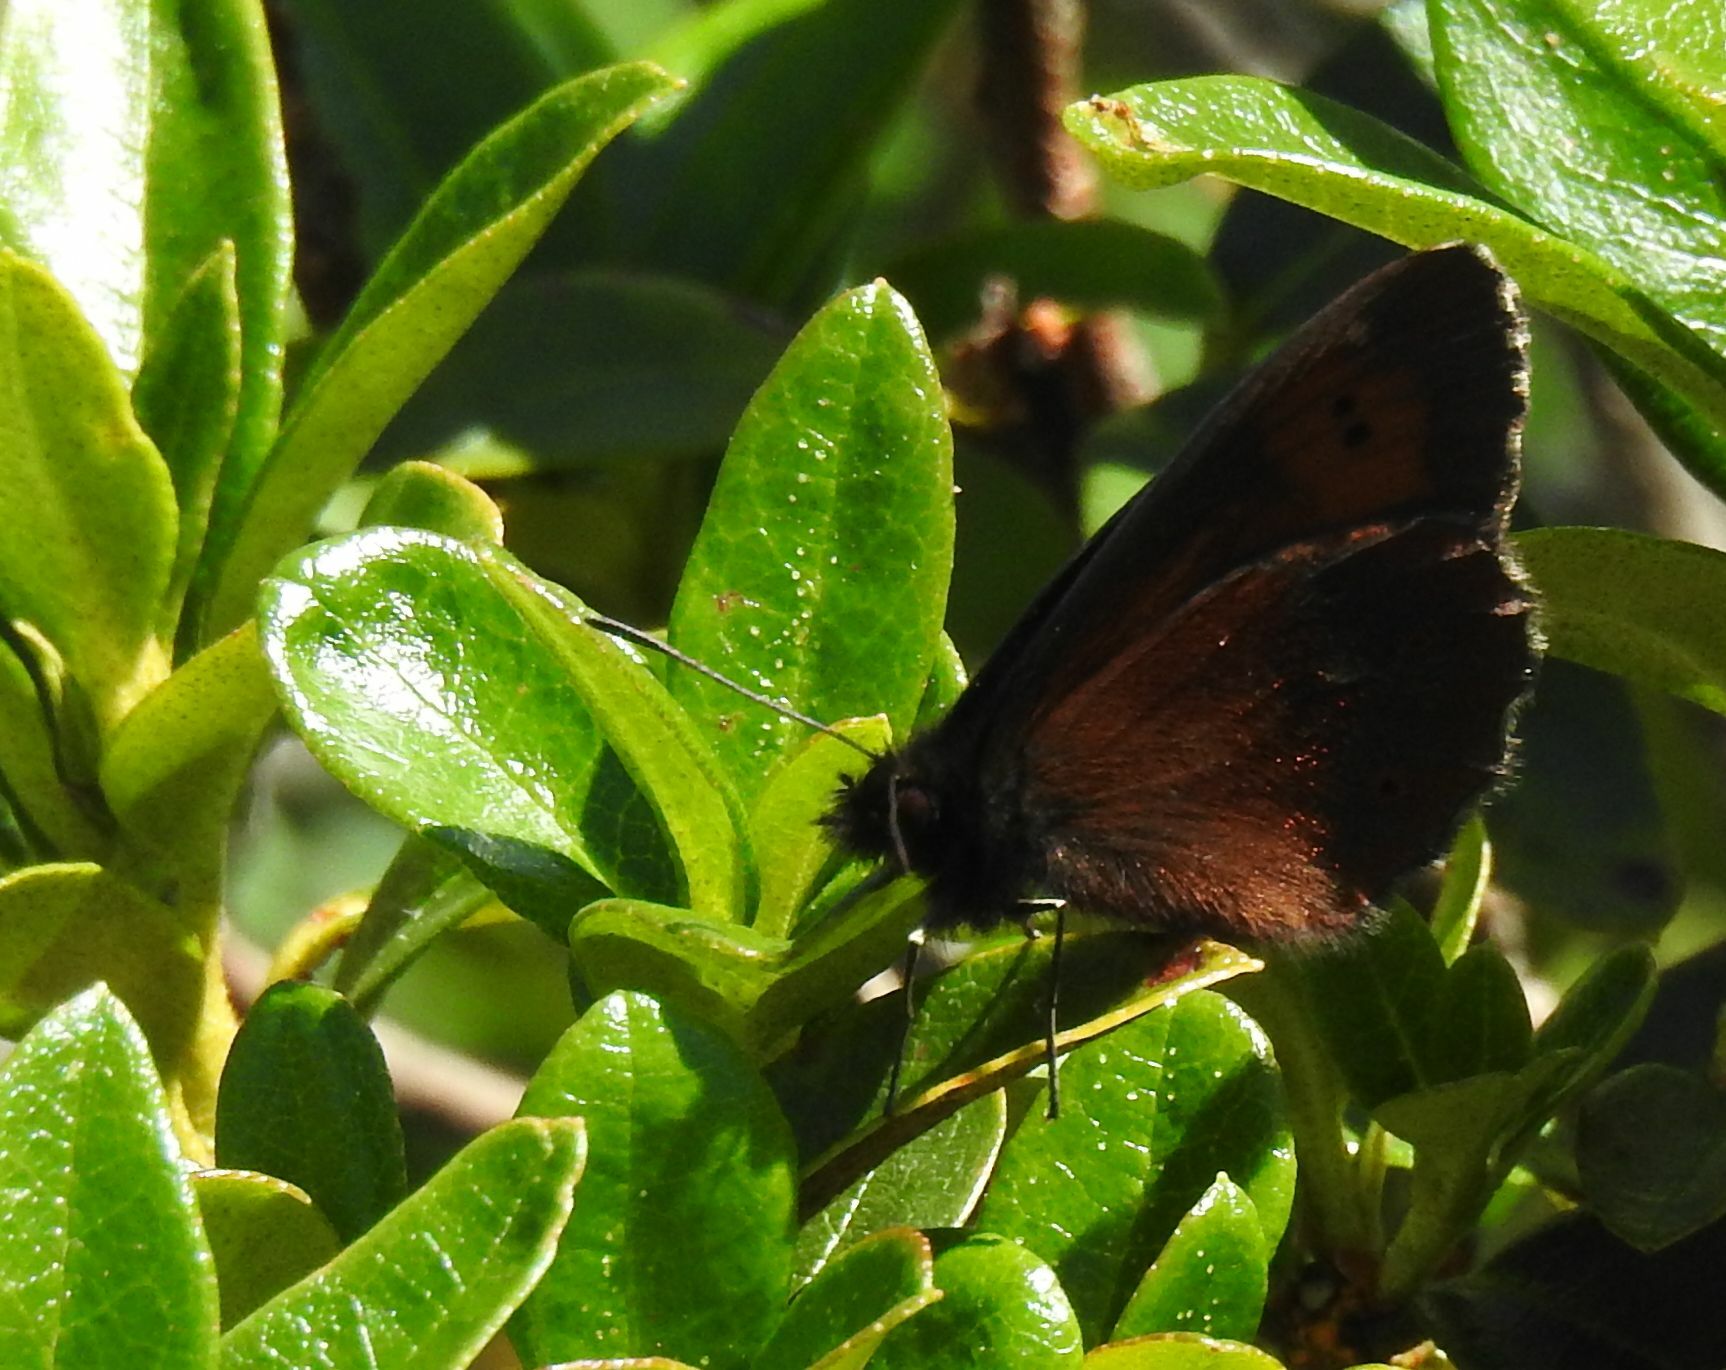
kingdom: Animalia
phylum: Arthropoda
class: Insecta
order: Lepidoptera
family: Nymphalidae
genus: Erebia
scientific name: Erebia euryale
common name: Large ringlet
